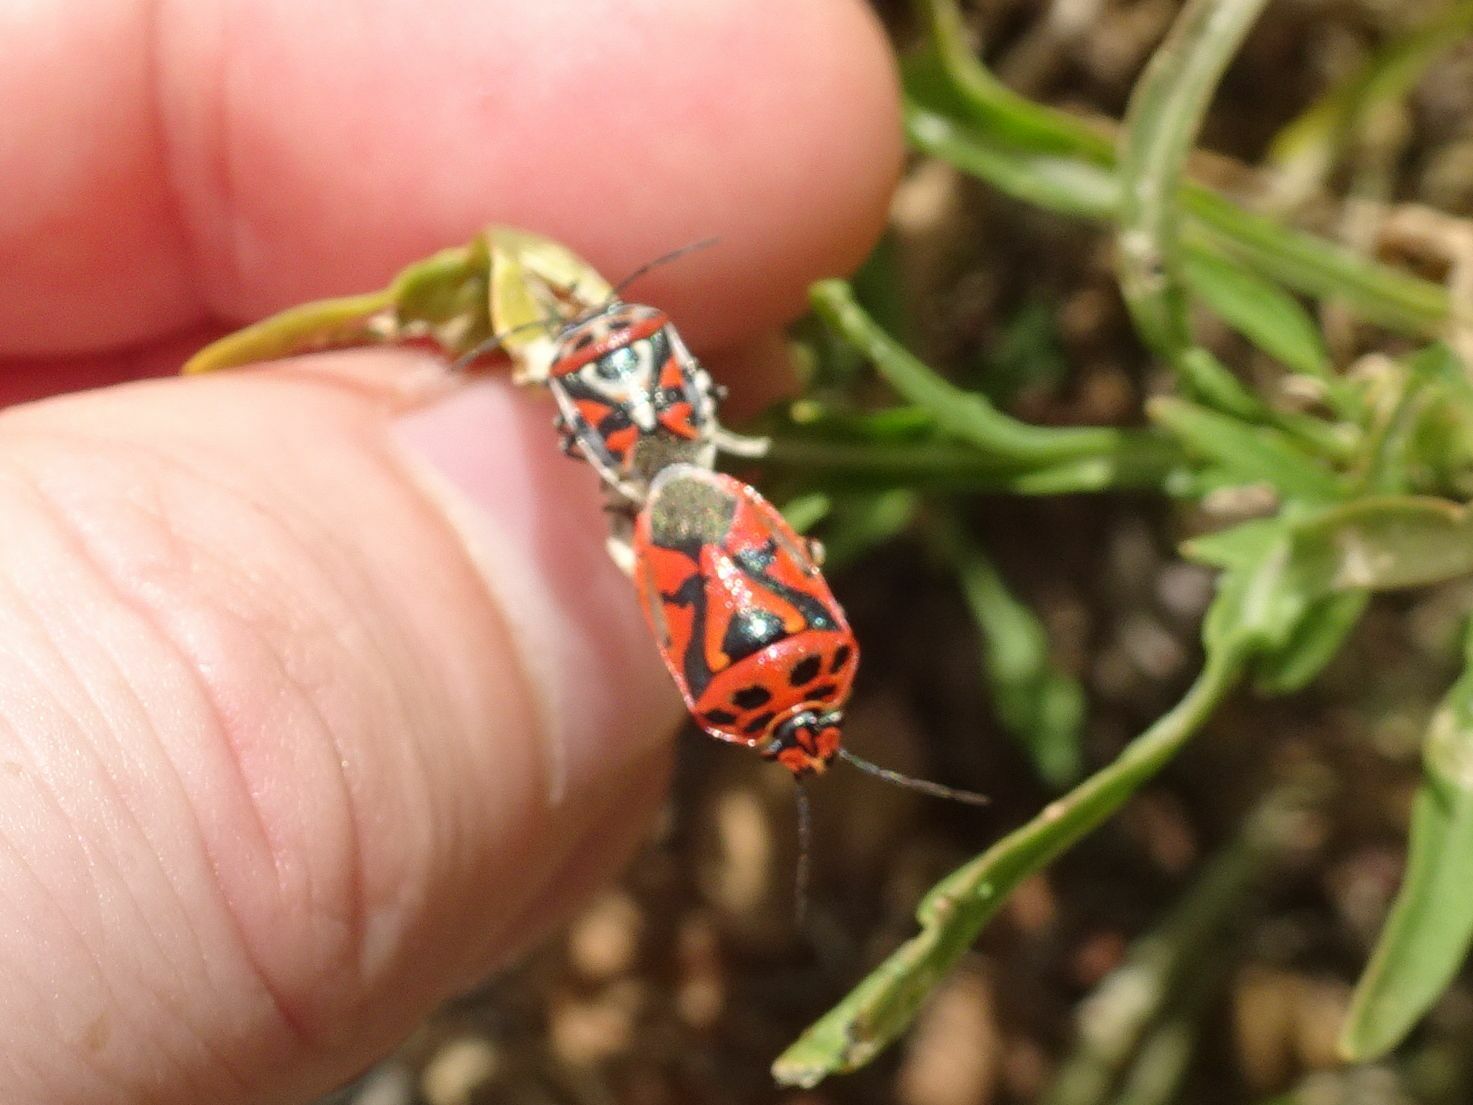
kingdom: Animalia
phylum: Arthropoda
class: Insecta
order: Hemiptera
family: Pentatomidae
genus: Eurydema
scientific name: Eurydema ornata
